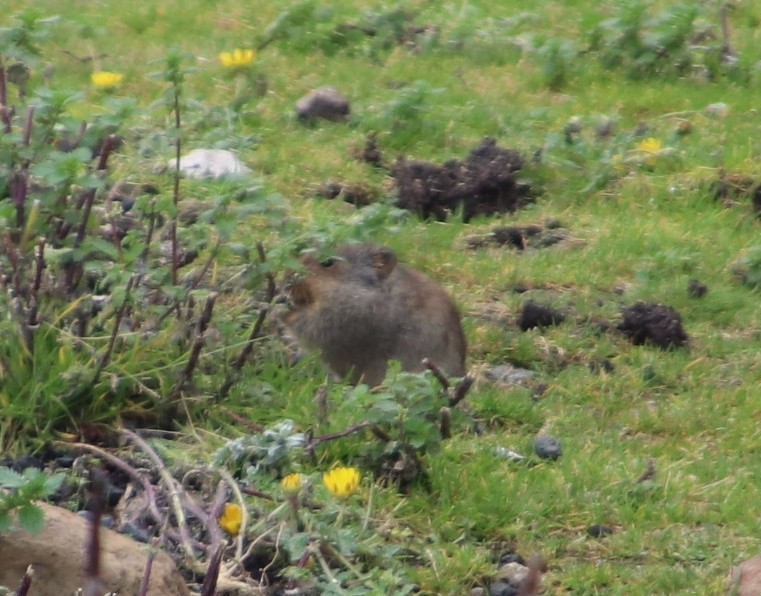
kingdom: Animalia
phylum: Chordata
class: Mammalia
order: Rodentia
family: Muridae
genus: Myotomys
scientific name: Myotomys sloggetti
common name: Rock karroo rat
